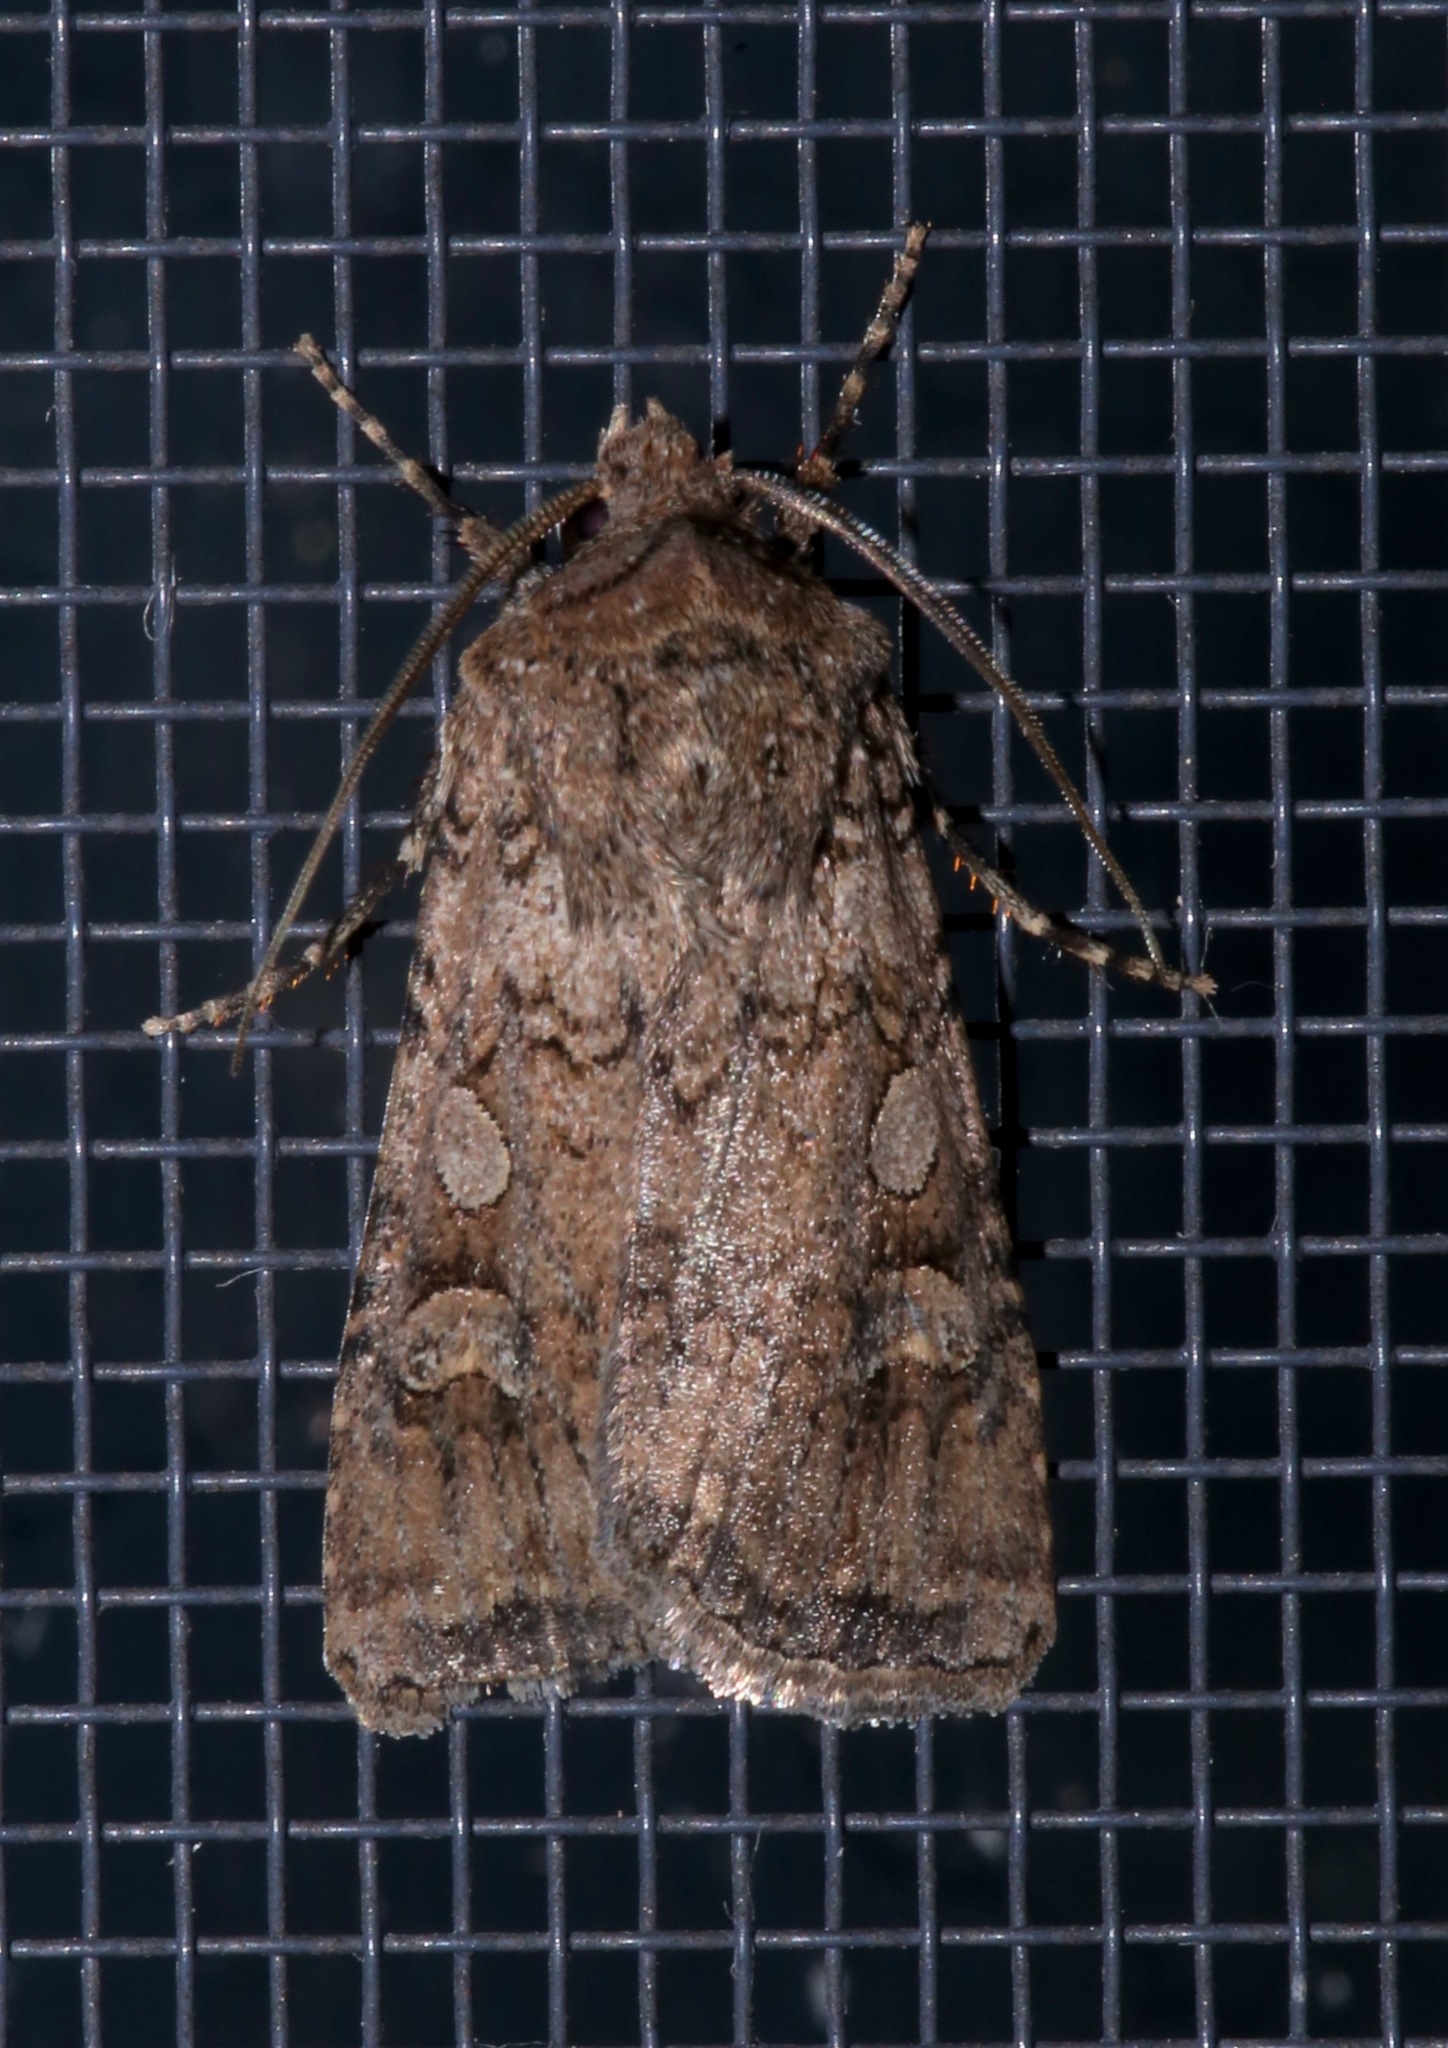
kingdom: Animalia
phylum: Arthropoda
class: Insecta
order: Lepidoptera
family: Noctuidae
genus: Euxoa
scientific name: Euxoa messoria
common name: Darksided cutworm
